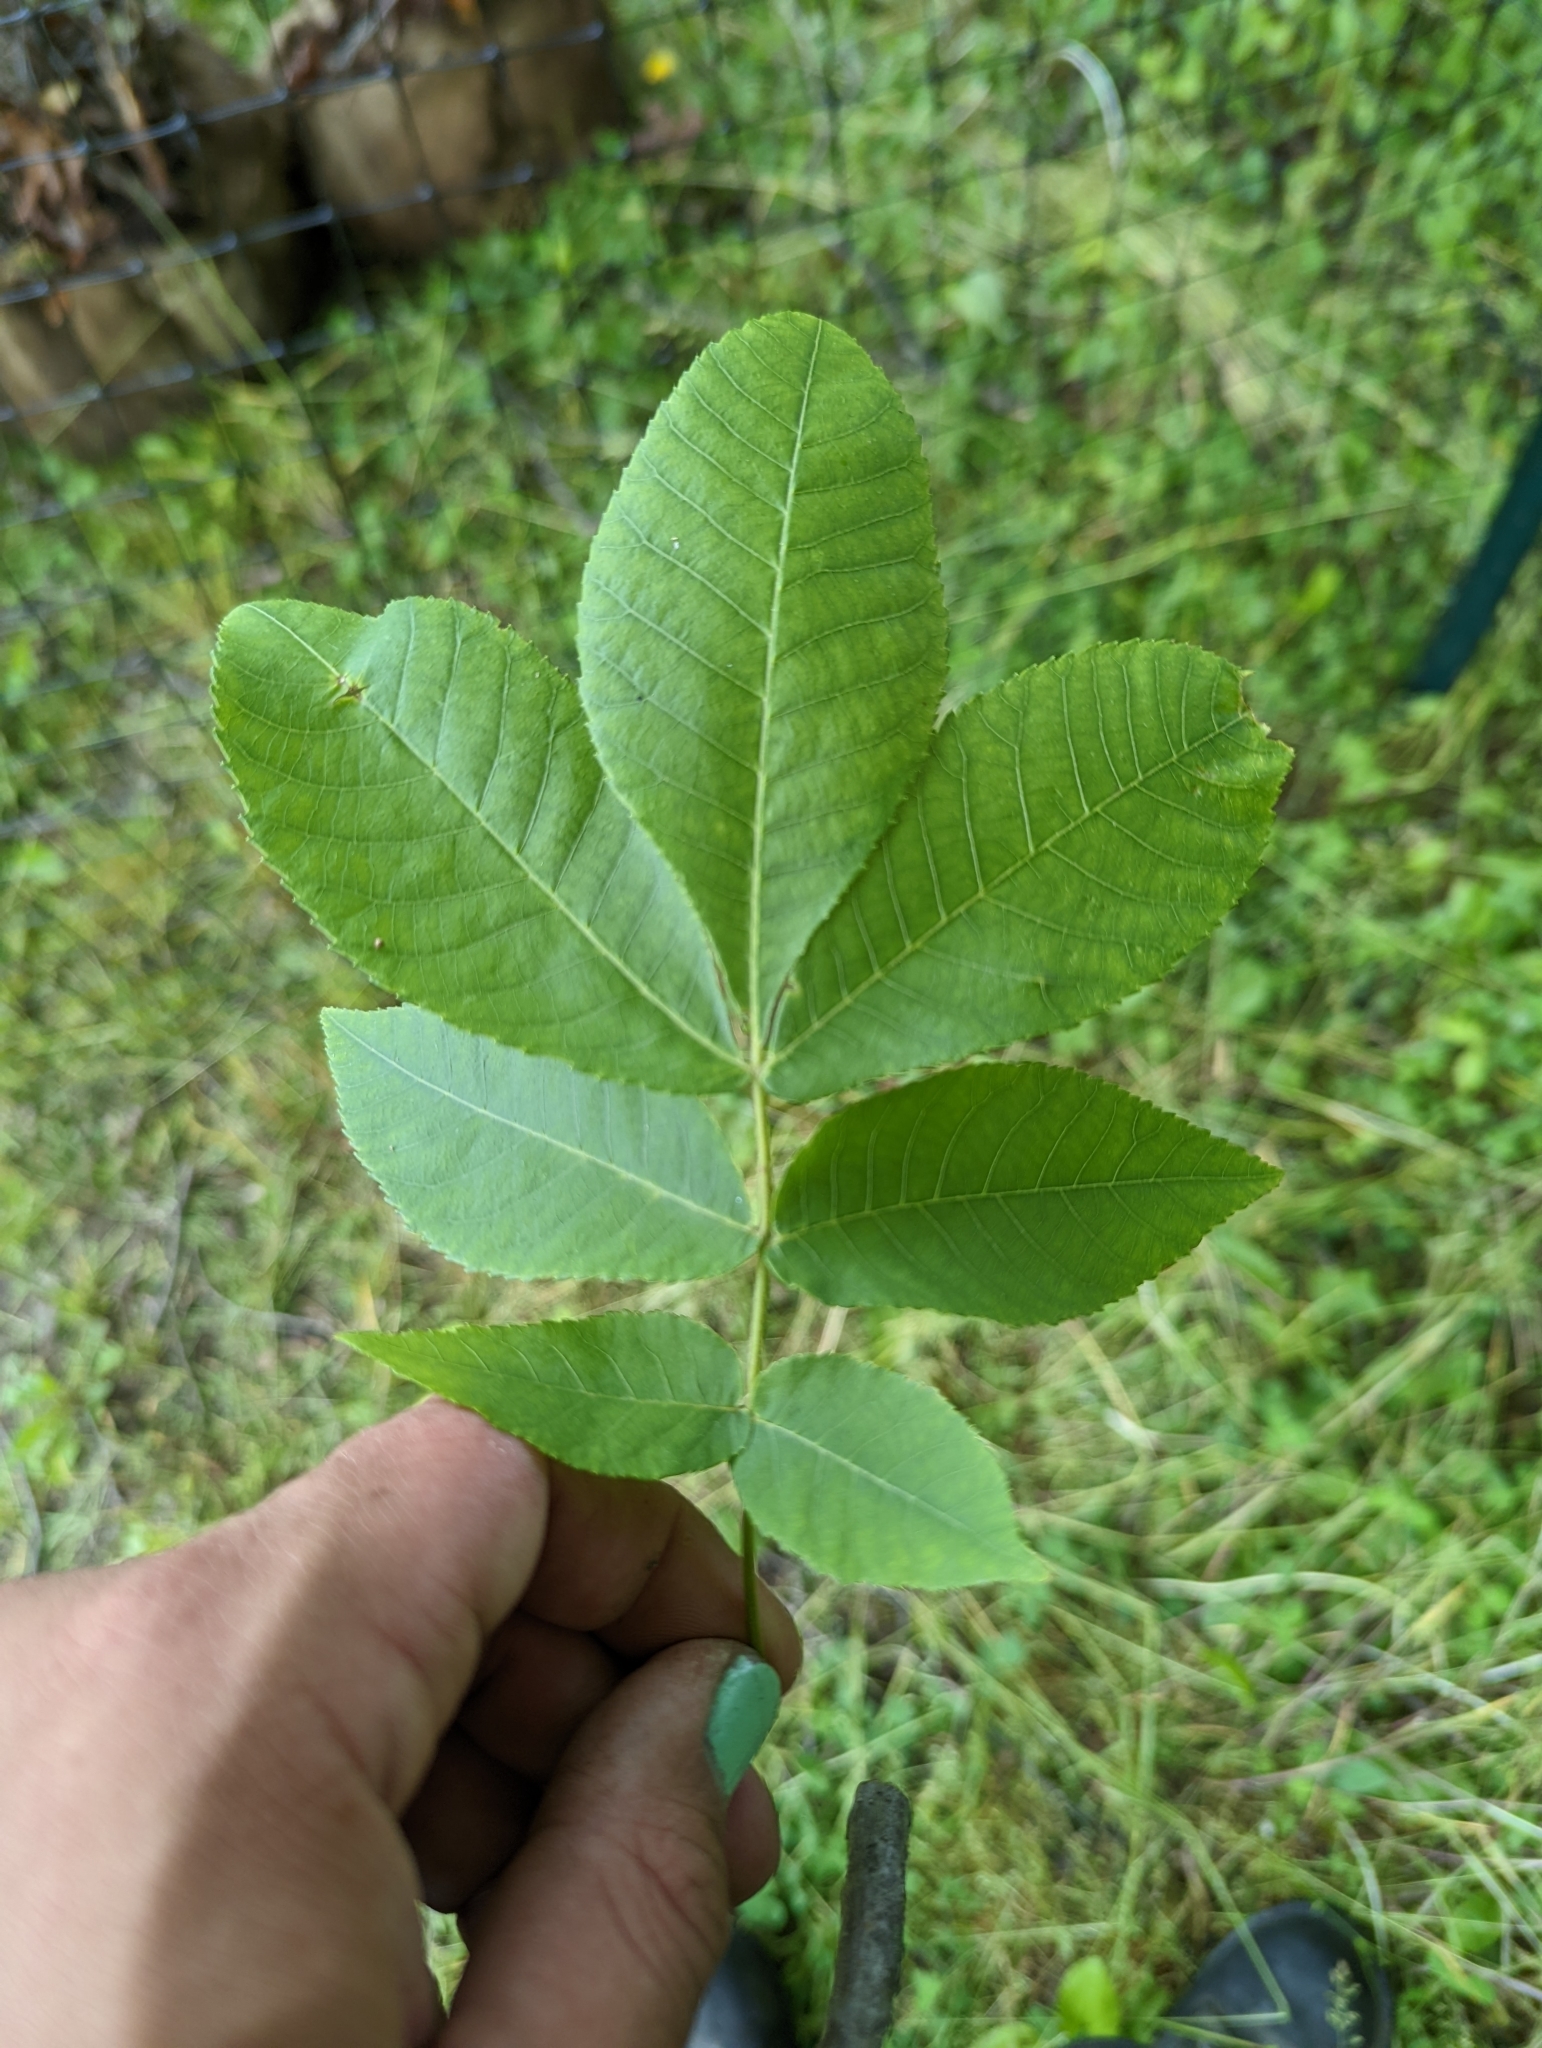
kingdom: Plantae
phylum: Tracheophyta
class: Magnoliopsida
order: Fagales
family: Juglandaceae
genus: Carya
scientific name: Carya glabra
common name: Pignut hickory
